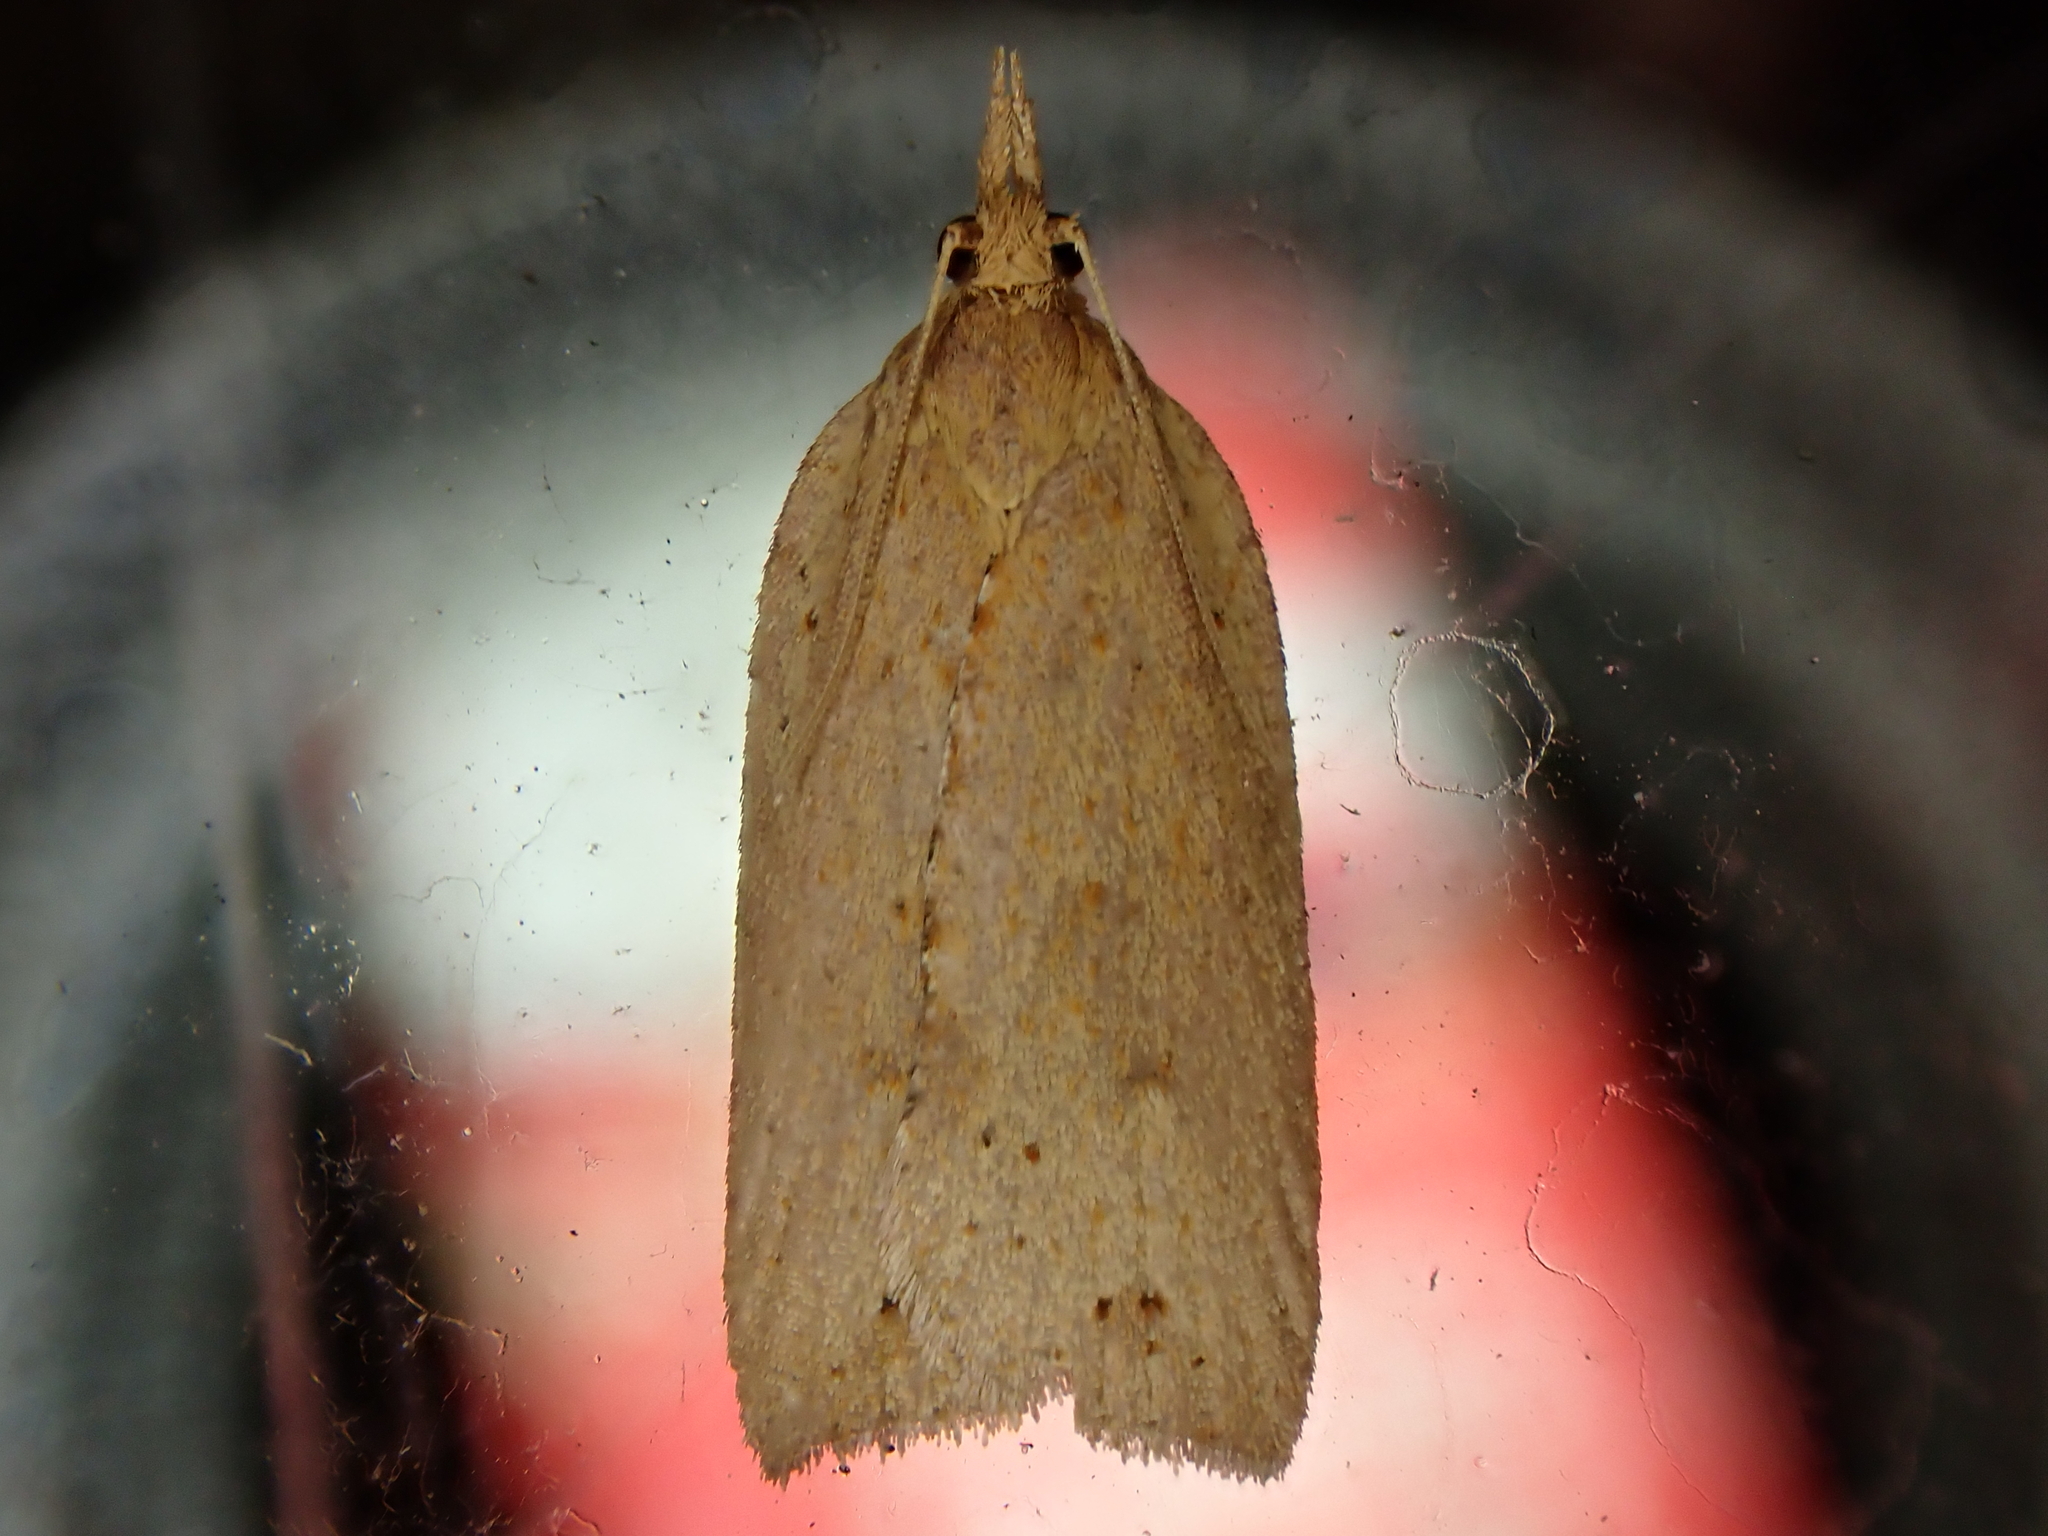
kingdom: Animalia
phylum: Arthropoda
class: Insecta
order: Lepidoptera
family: Tortricidae
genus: Planotortrix
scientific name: Planotortrix notophaea
